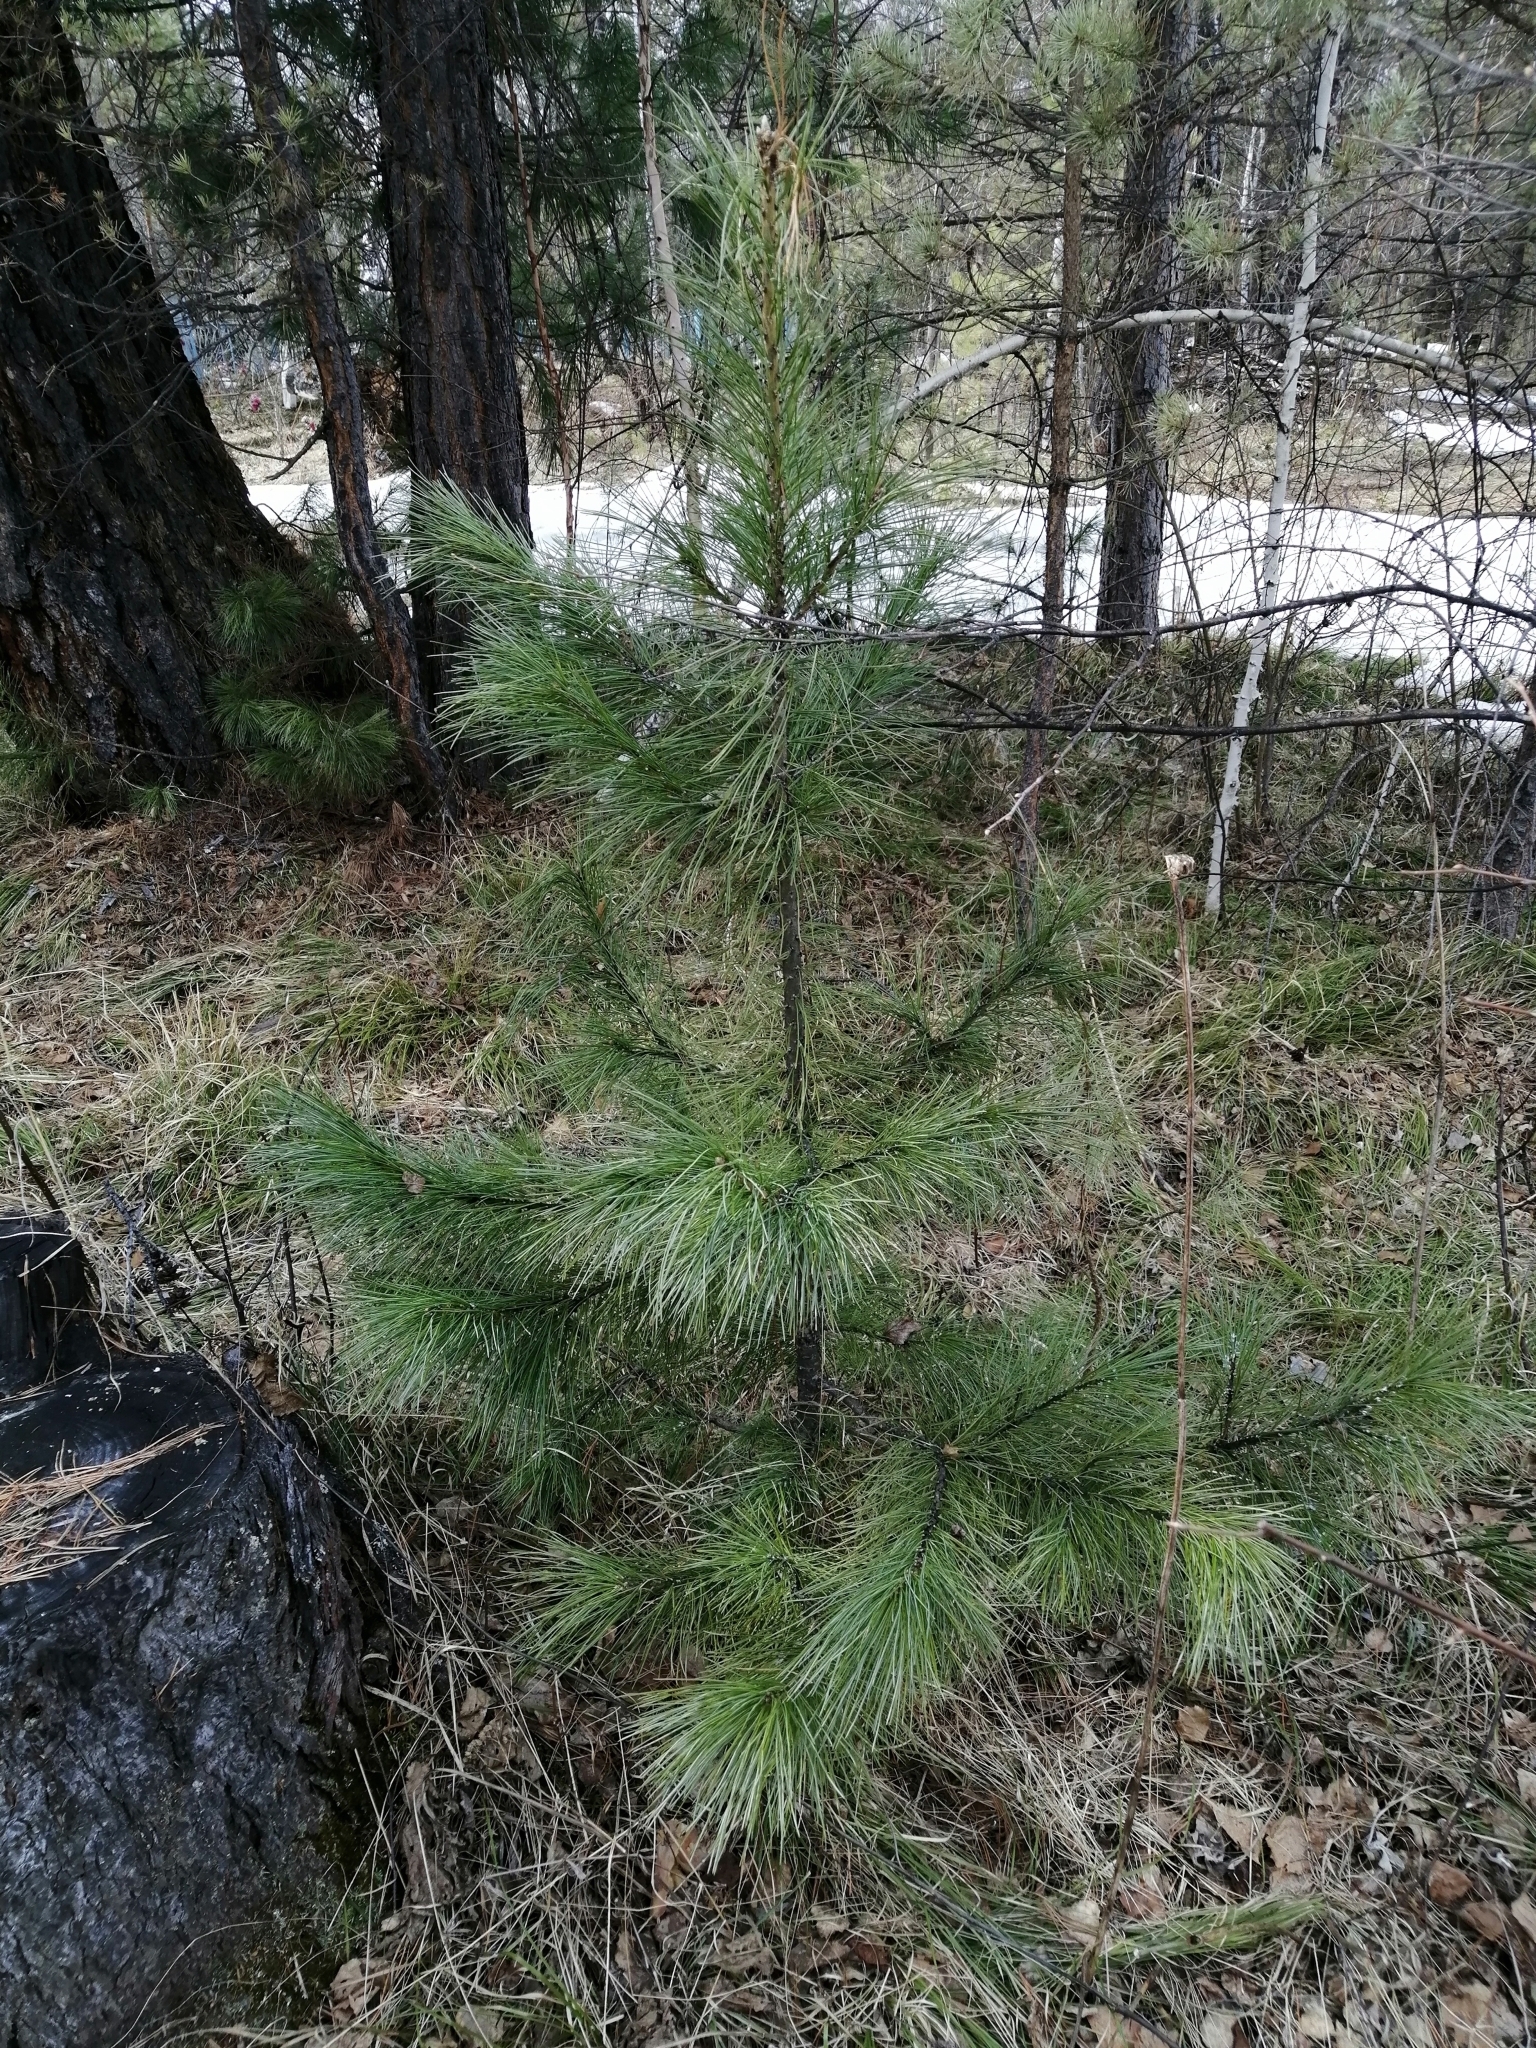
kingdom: Plantae
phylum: Tracheophyta
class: Pinopsida
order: Pinales
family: Pinaceae
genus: Pinus
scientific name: Pinus sibirica
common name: Siberian pine
